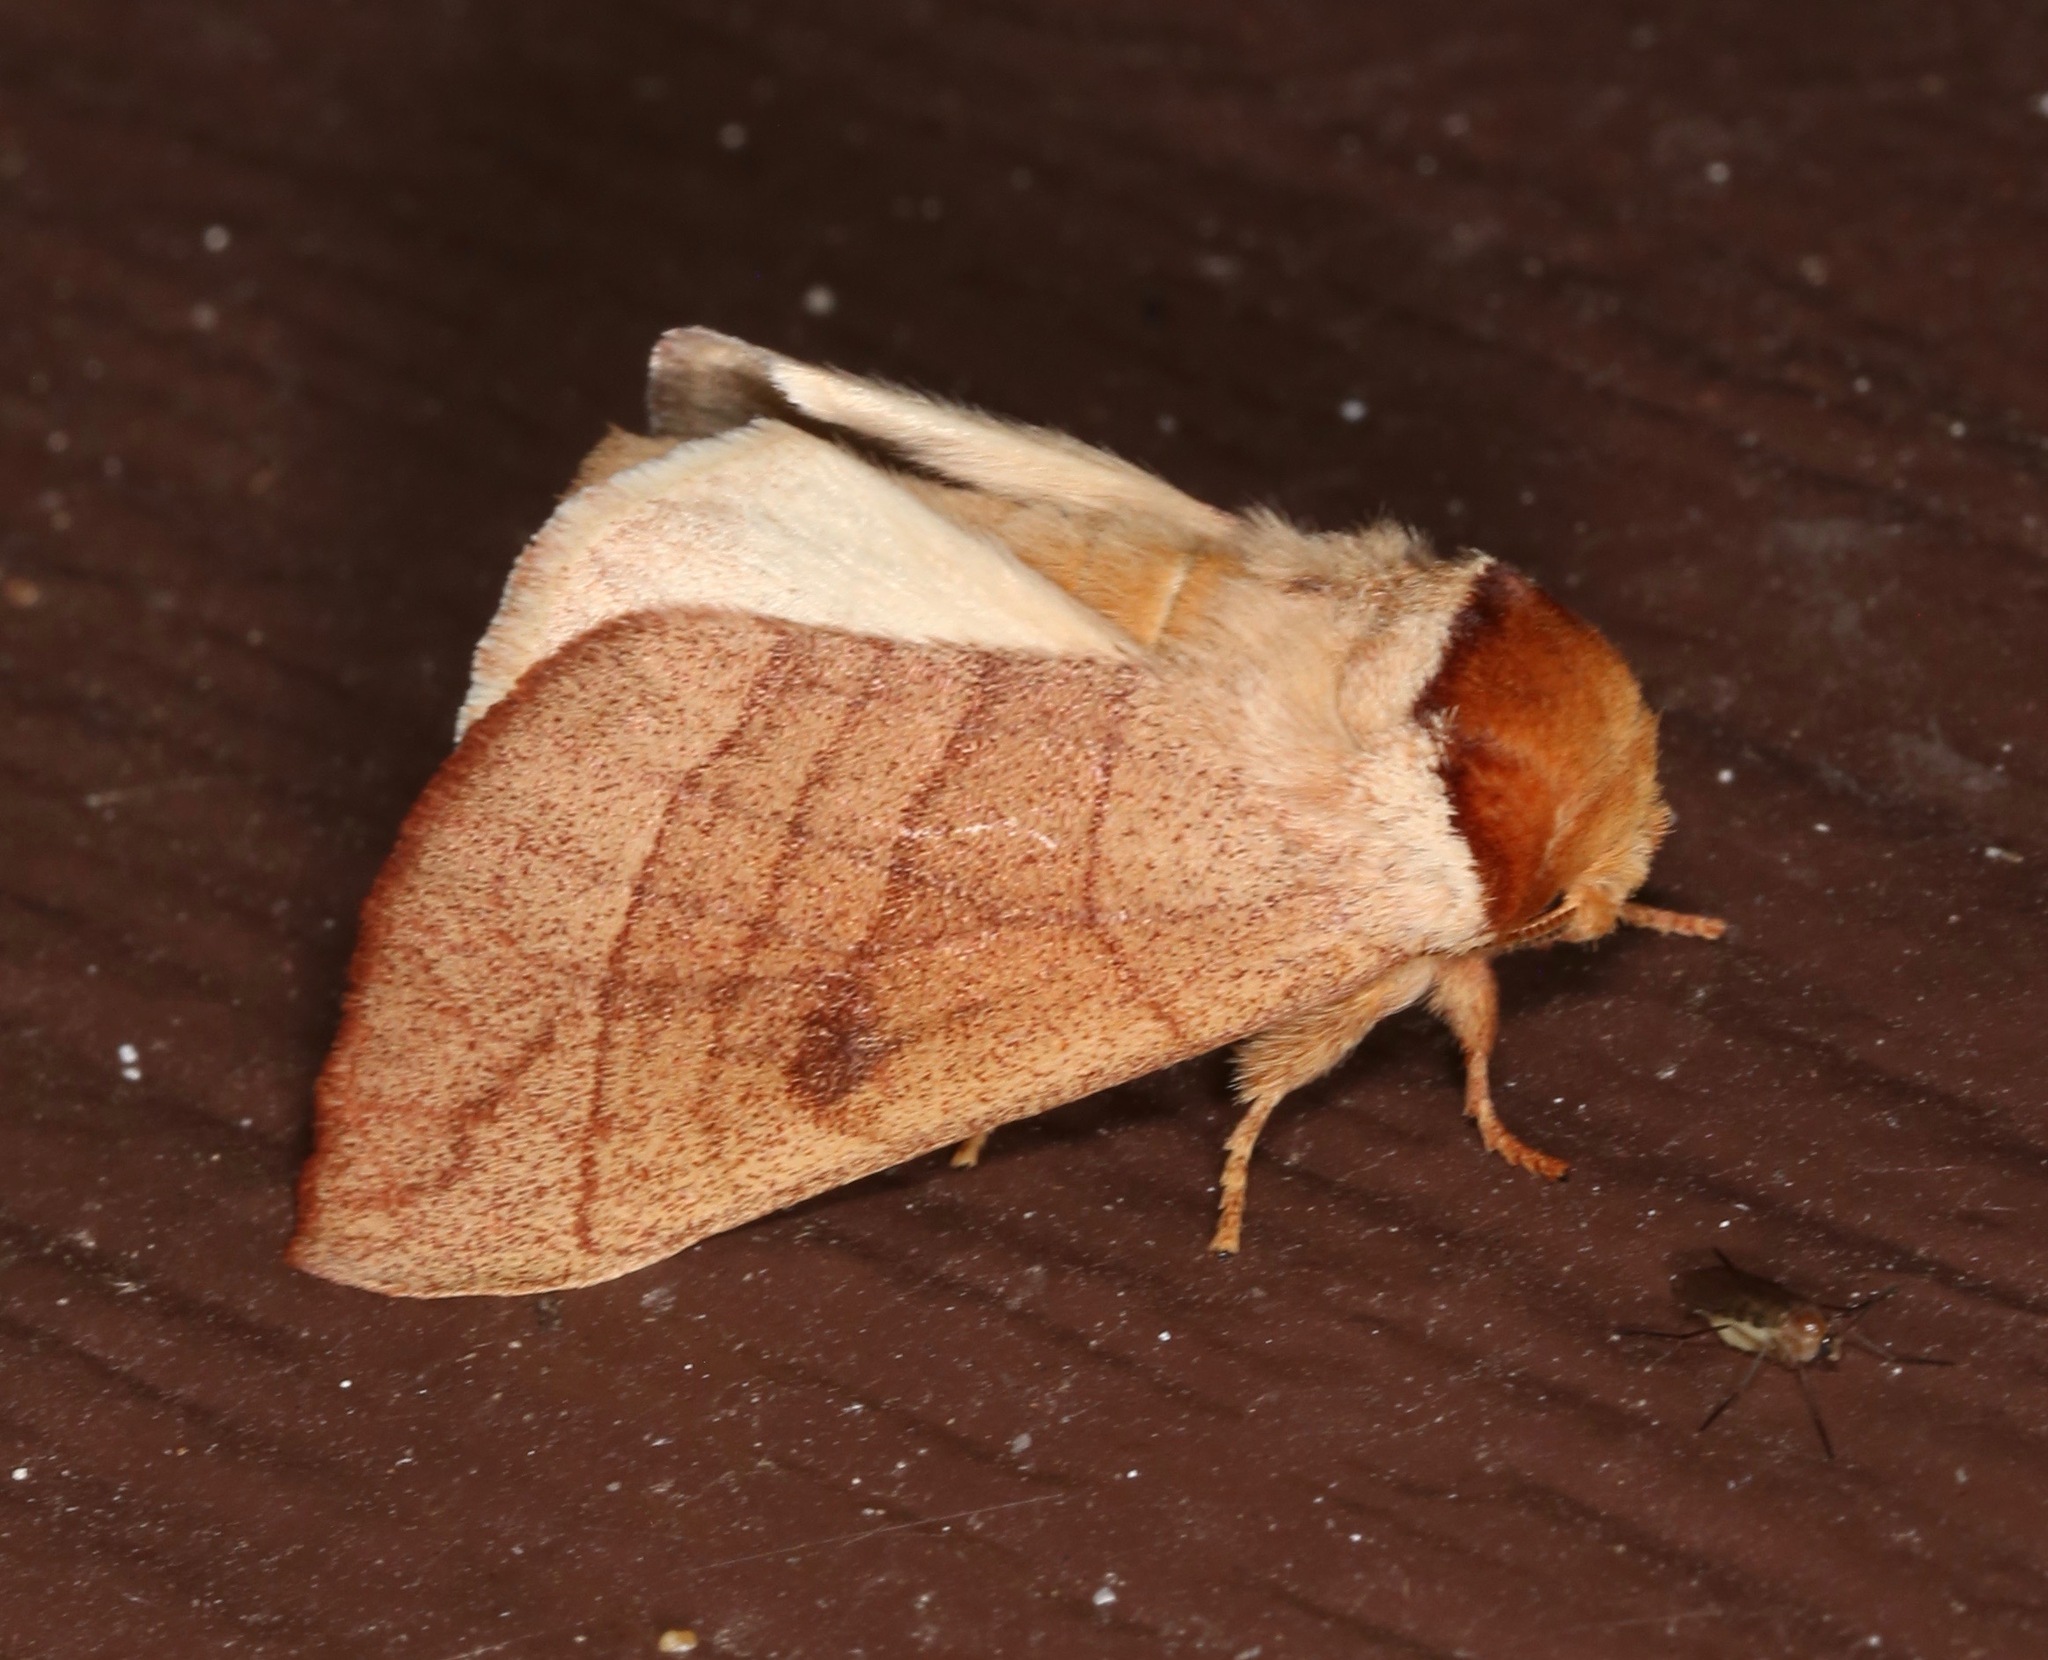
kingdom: Animalia
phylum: Arthropoda
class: Insecta
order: Lepidoptera
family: Notodontidae
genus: Datana
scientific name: Datana perspicua
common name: Spotted datana
